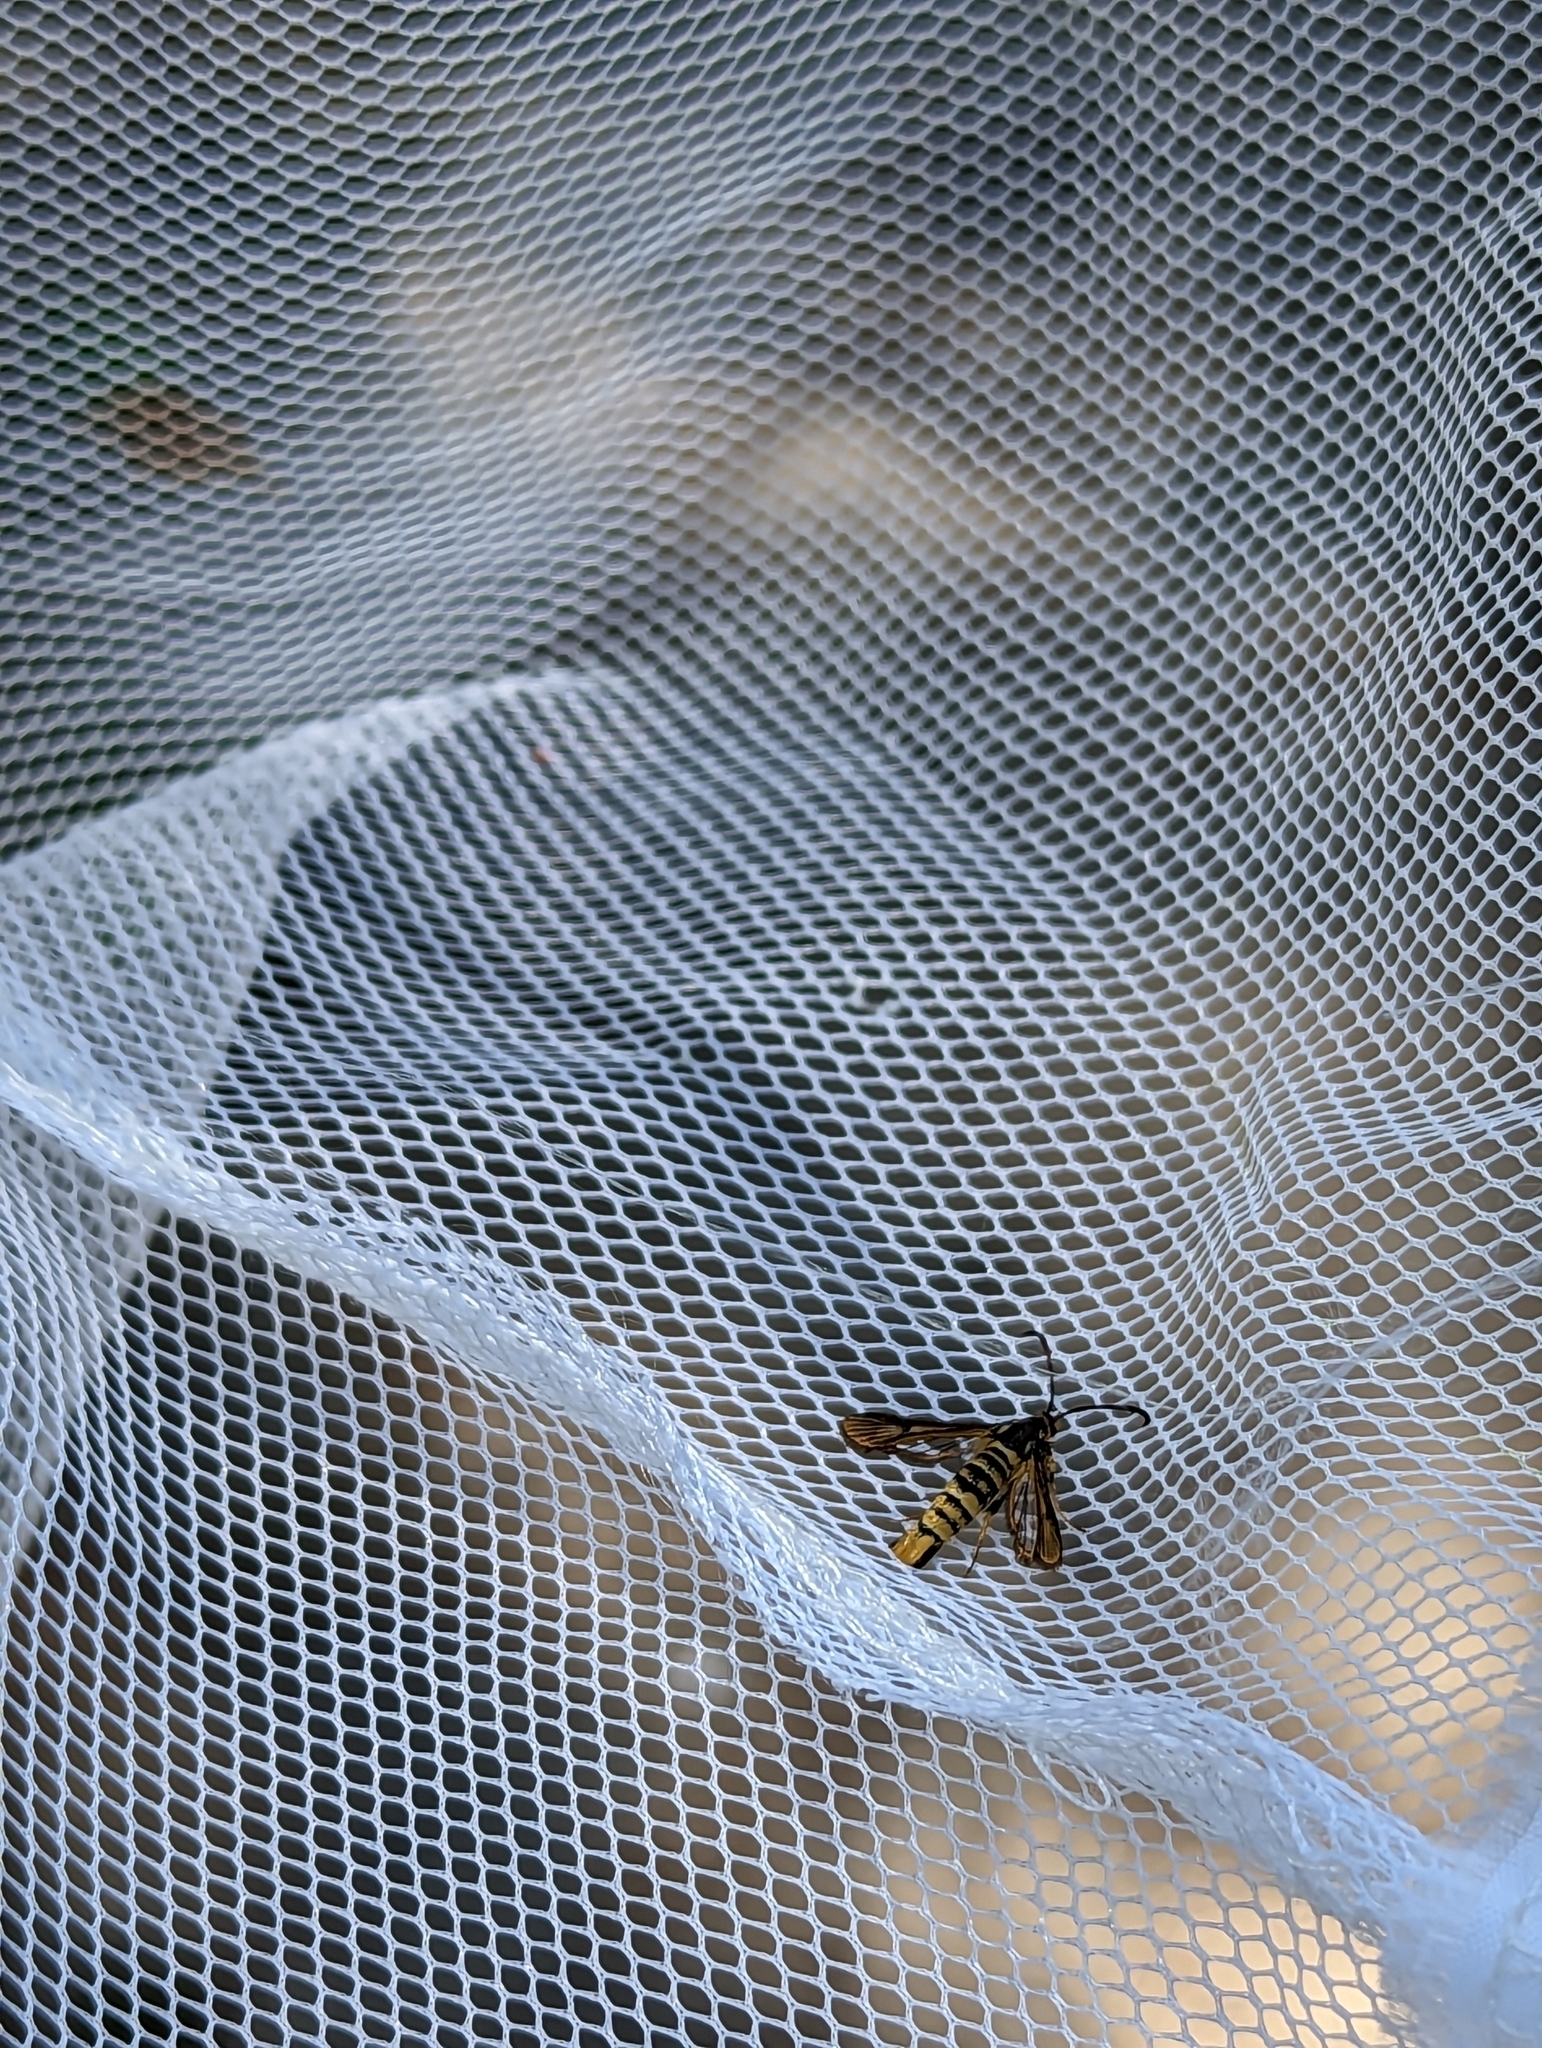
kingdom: Animalia
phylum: Arthropoda
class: Insecta
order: Lepidoptera
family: Sesiidae
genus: Synanthedon
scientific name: Synanthedon bibionipennis
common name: Strawberry crown moth
